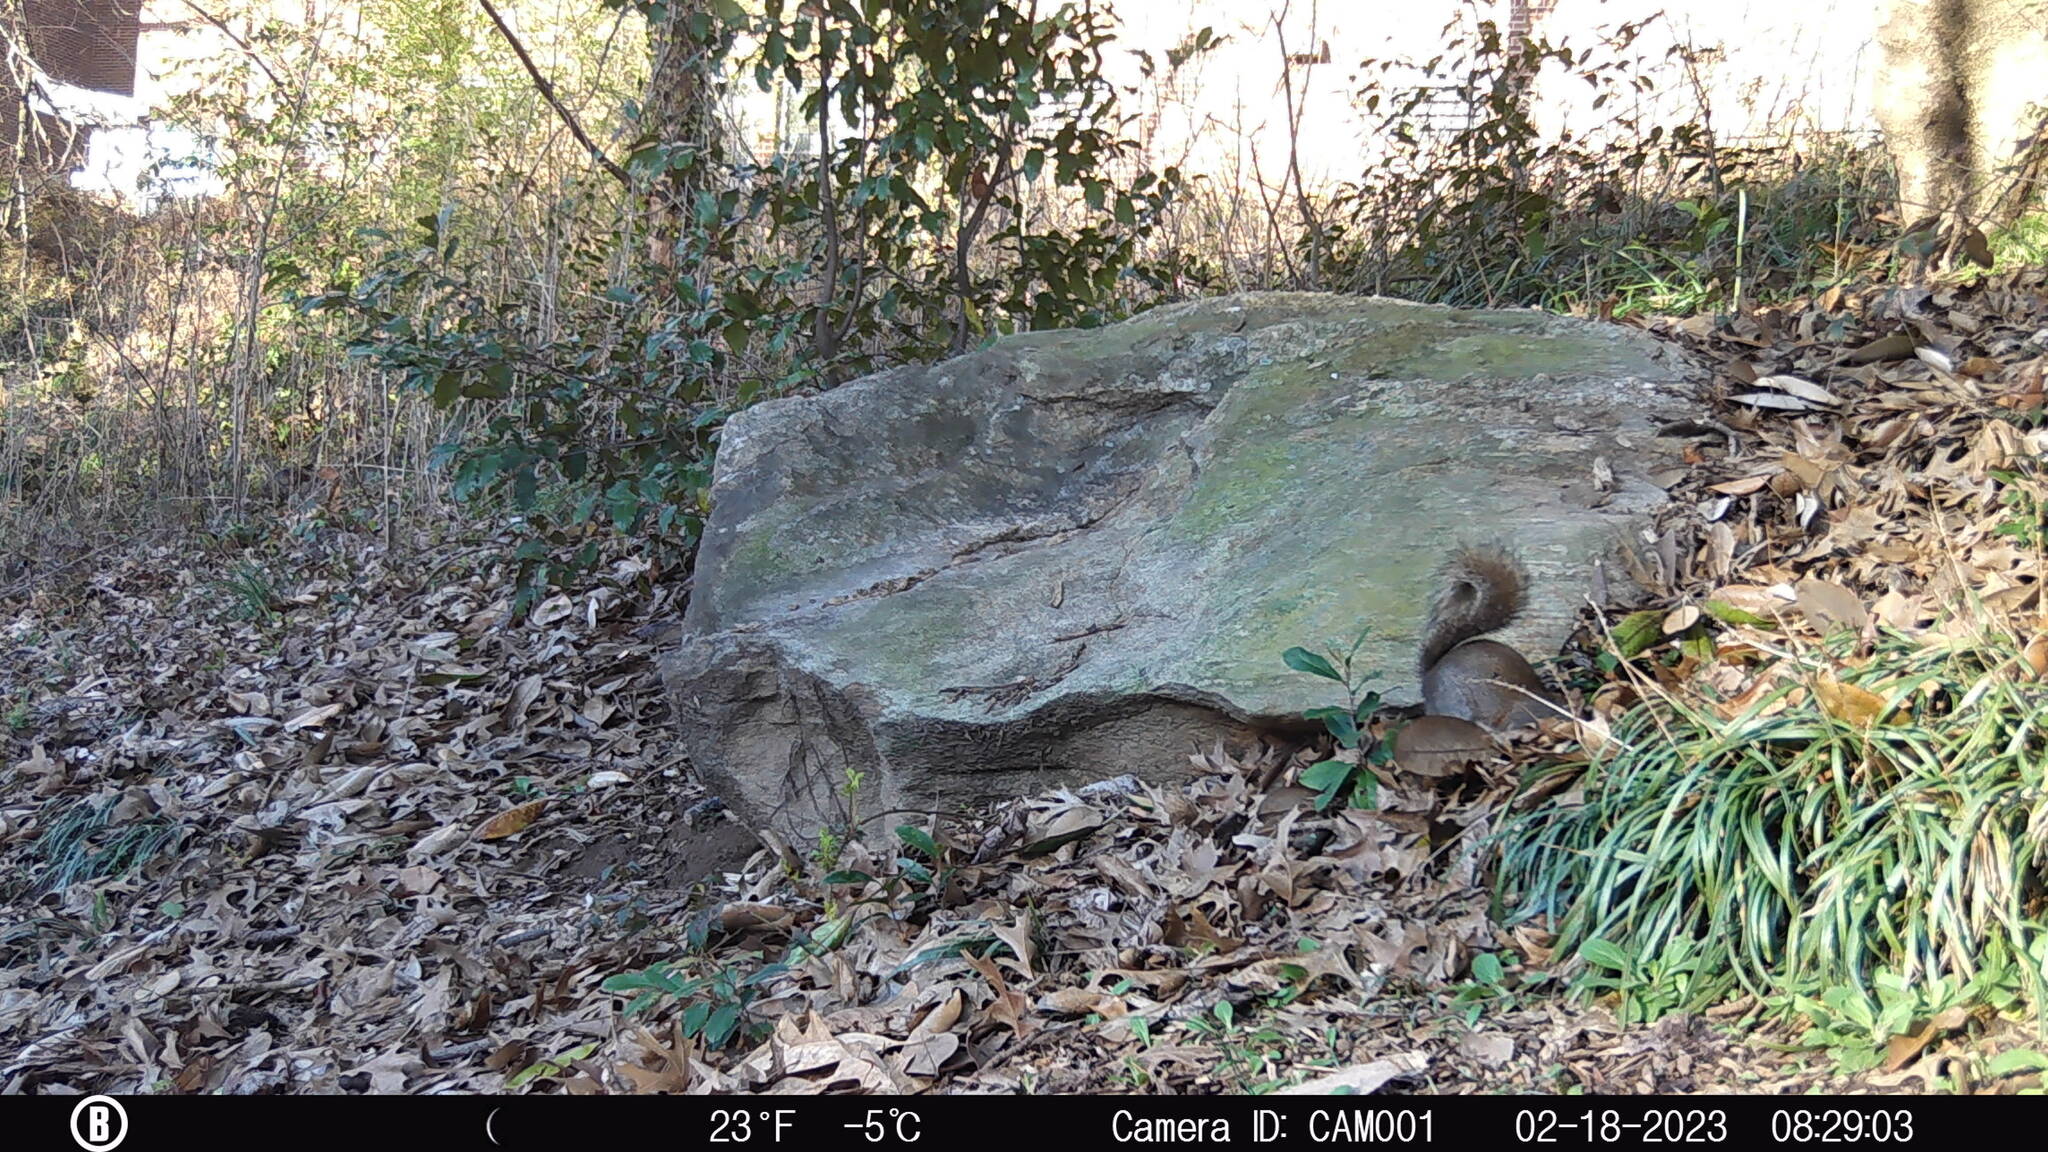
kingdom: Animalia
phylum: Chordata
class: Mammalia
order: Rodentia
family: Sciuridae
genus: Sciurus
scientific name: Sciurus carolinensis
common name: Eastern gray squirrel
